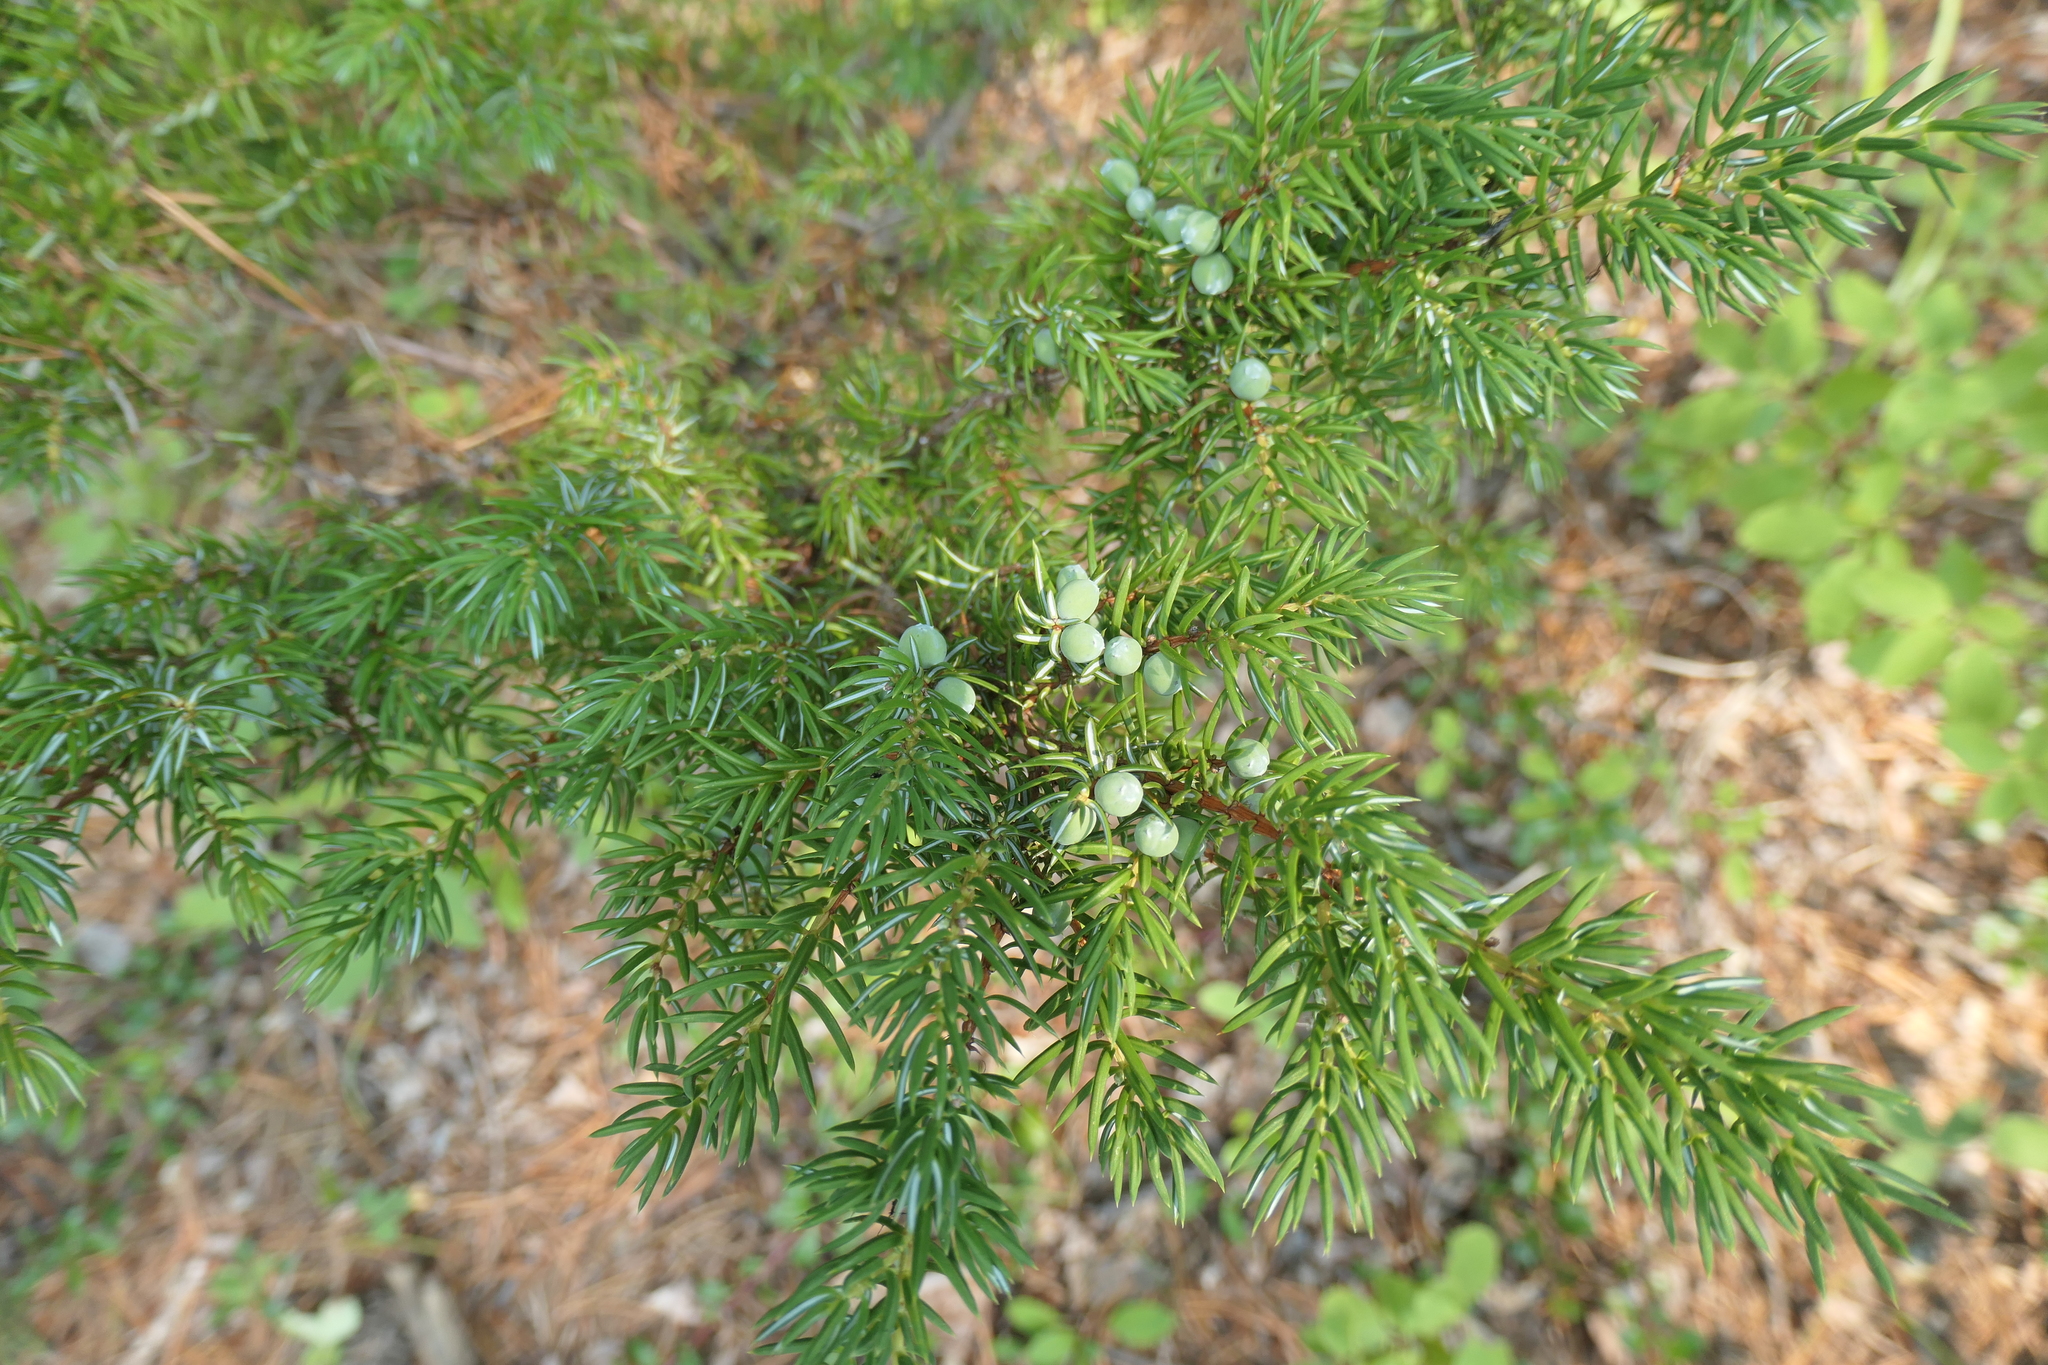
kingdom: Plantae
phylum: Tracheophyta
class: Pinopsida
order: Pinales
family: Cupressaceae
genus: Juniperus
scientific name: Juniperus communis
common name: Common juniper
